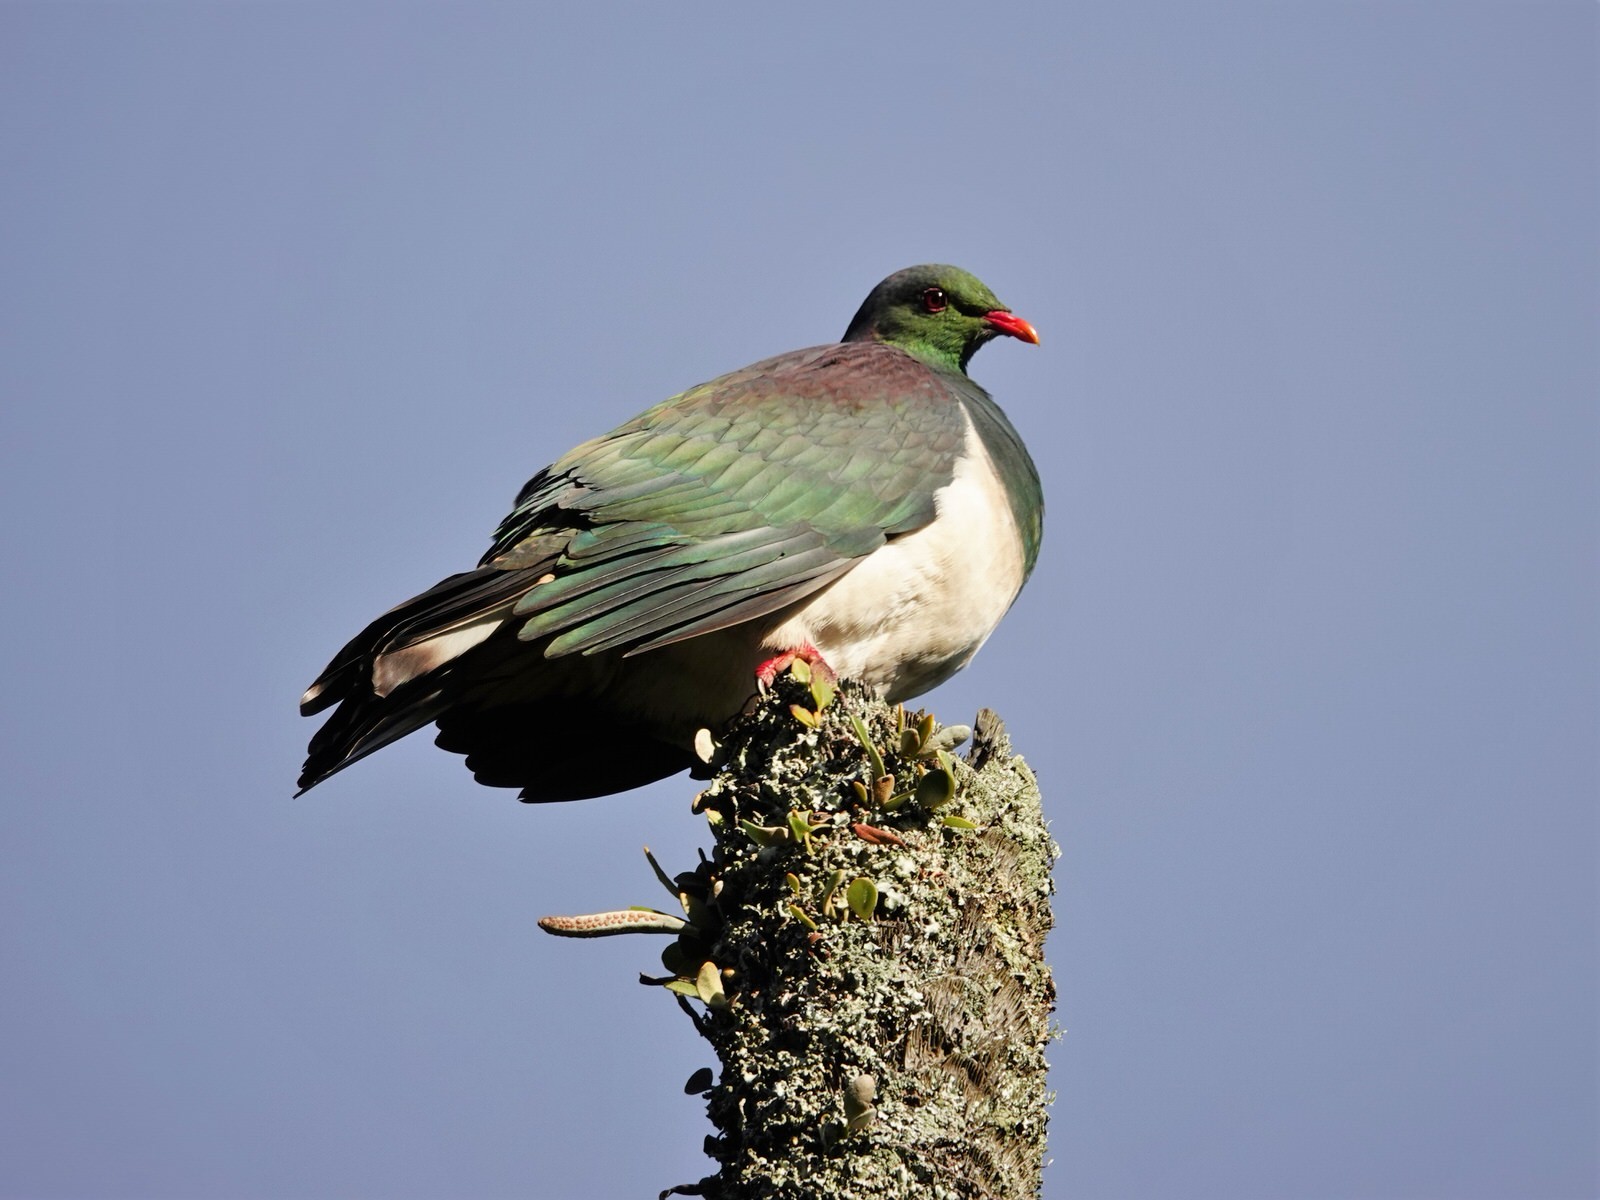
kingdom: Animalia
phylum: Chordata
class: Aves
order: Columbiformes
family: Columbidae
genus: Hemiphaga
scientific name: Hemiphaga novaeseelandiae
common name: New zealand pigeon
